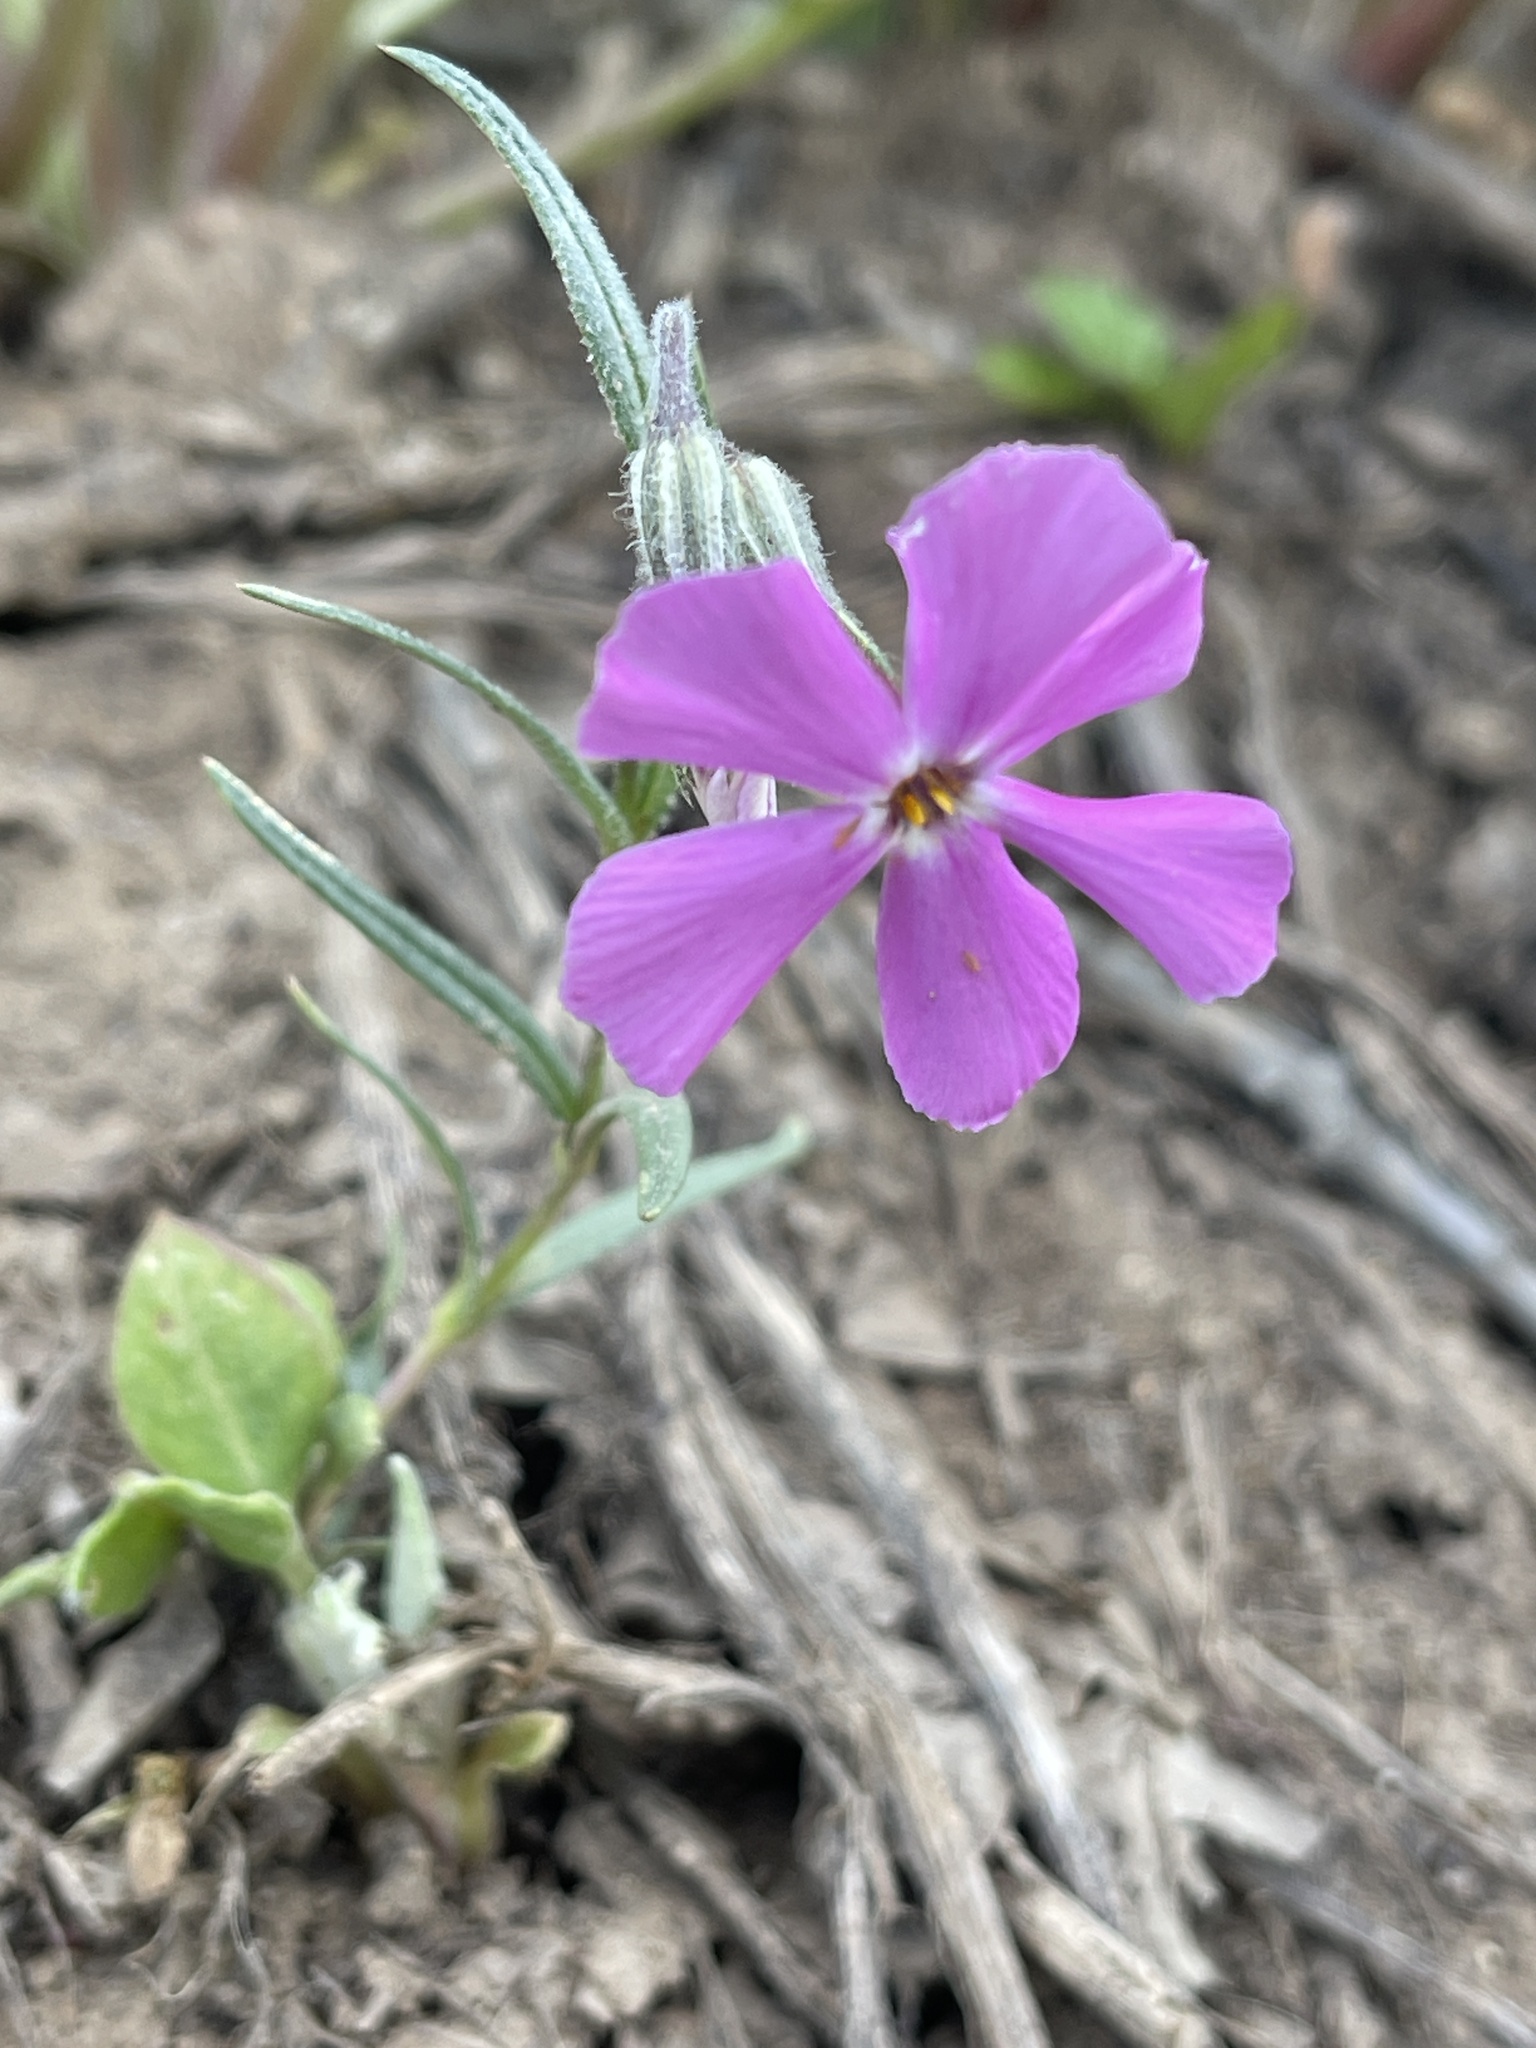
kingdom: Plantae
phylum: Tracheophyta
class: Magnoliopsida
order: Ericales
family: Polemoniaceae
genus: Phlox
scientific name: Phlox longifolia
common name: Longleaf phlox
